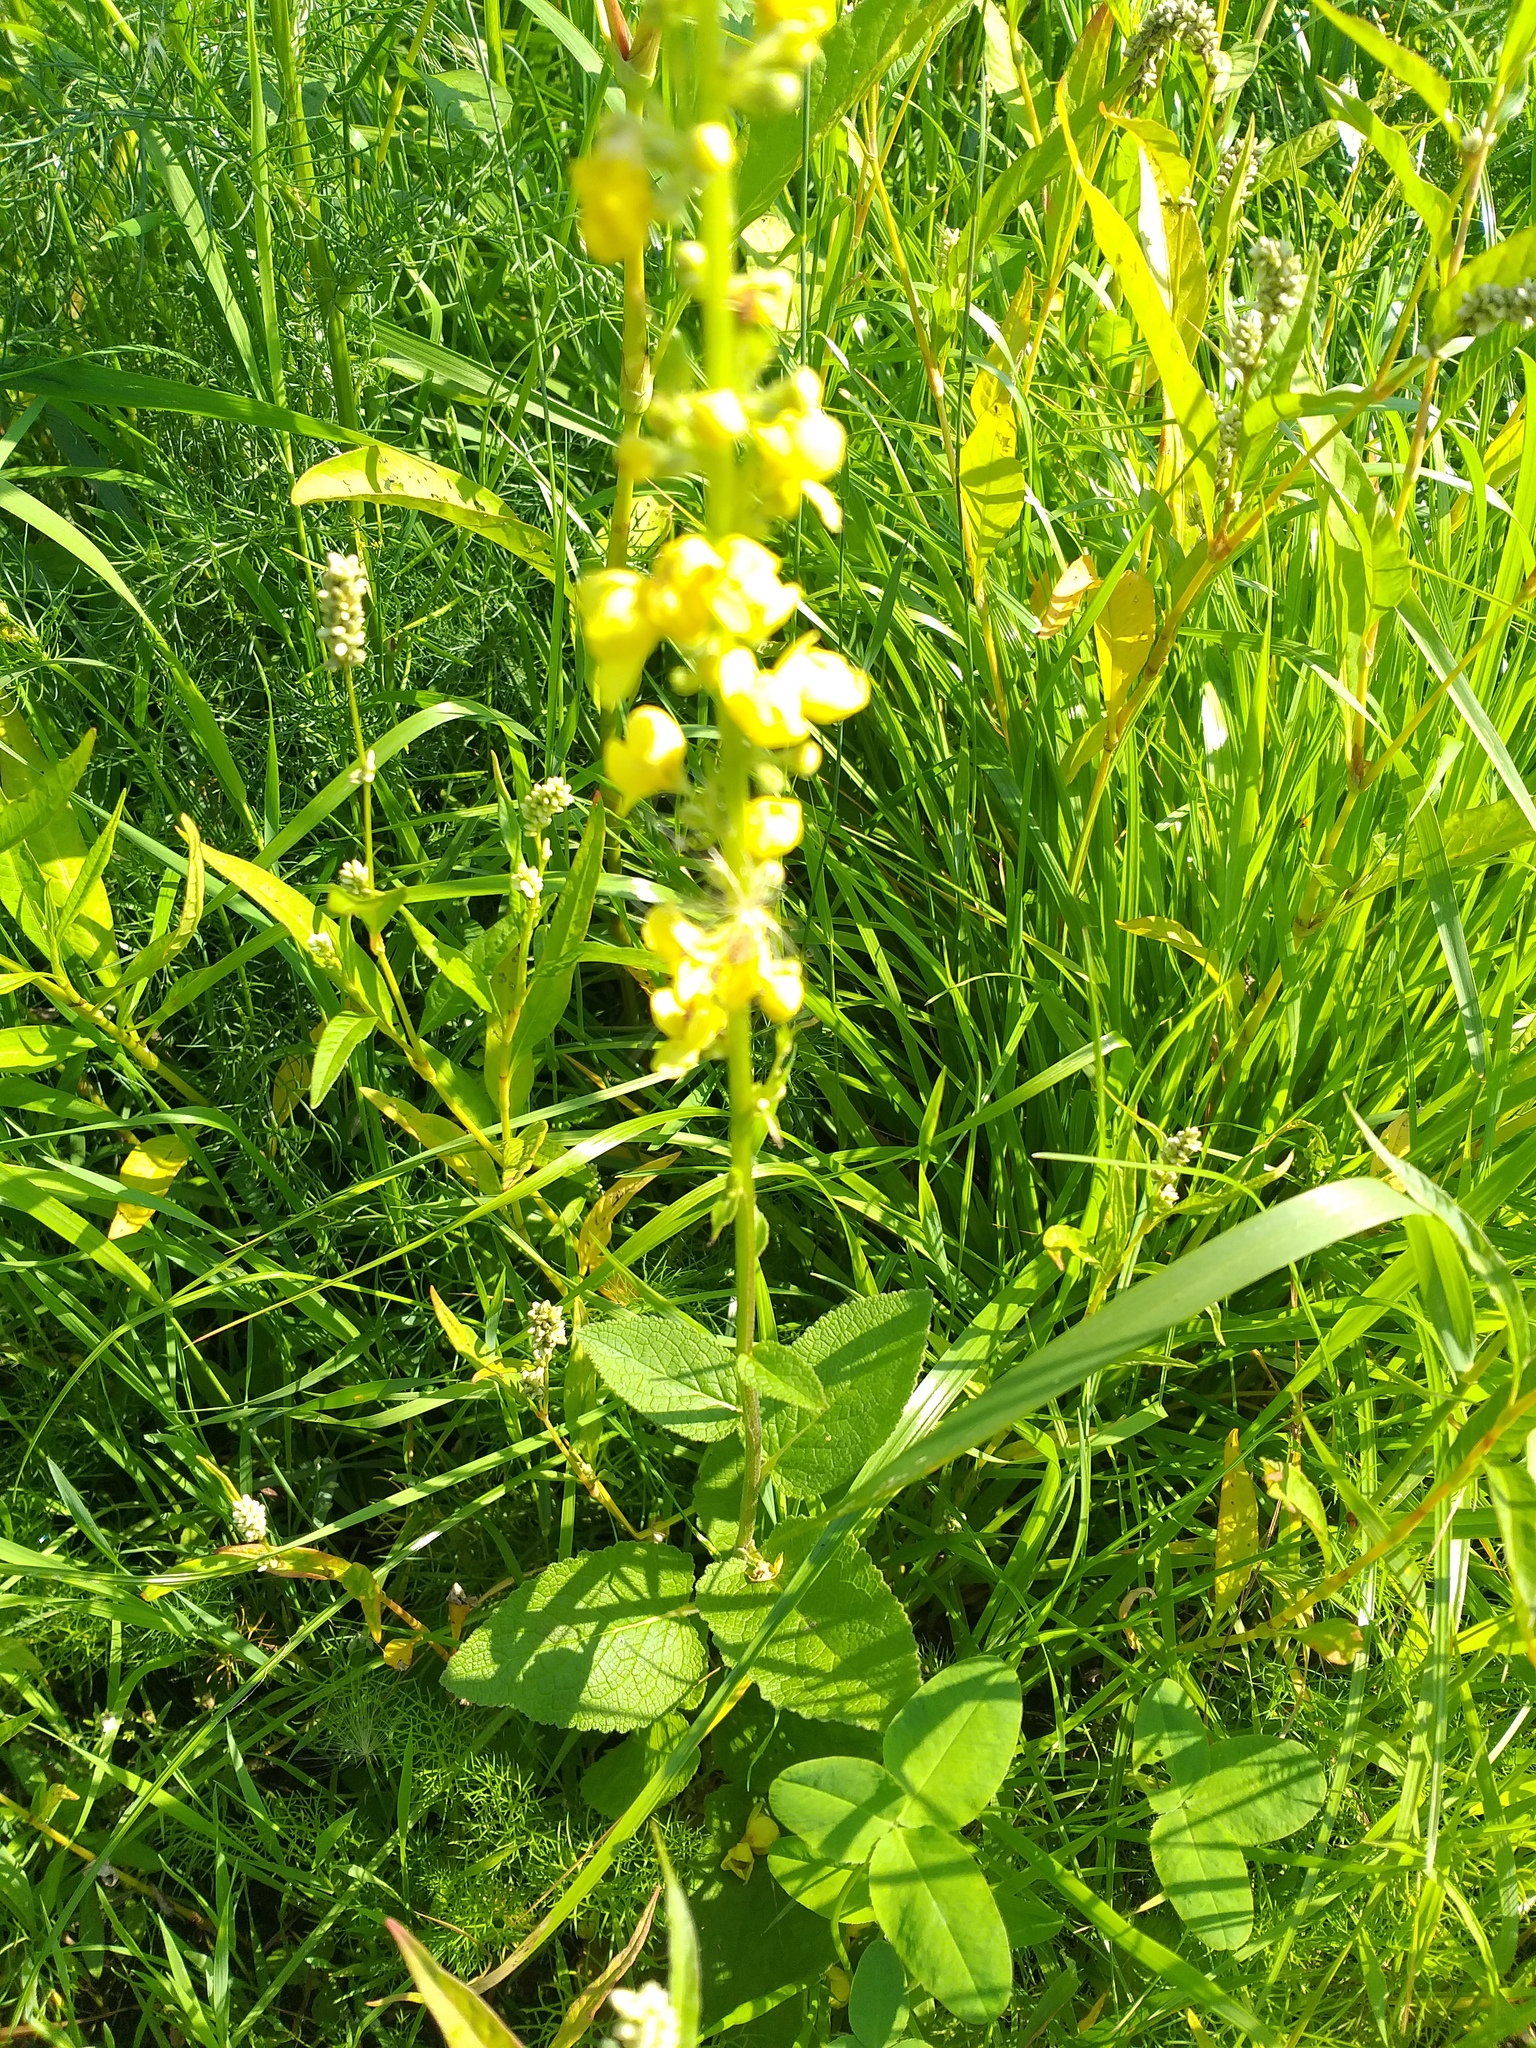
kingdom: Plantae
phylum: Tracheophyta
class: Magnoliopsida
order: Lamiales
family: Scrophulariaceae
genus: Verbascum
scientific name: Verbascum nigrum
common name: Dark mullein
